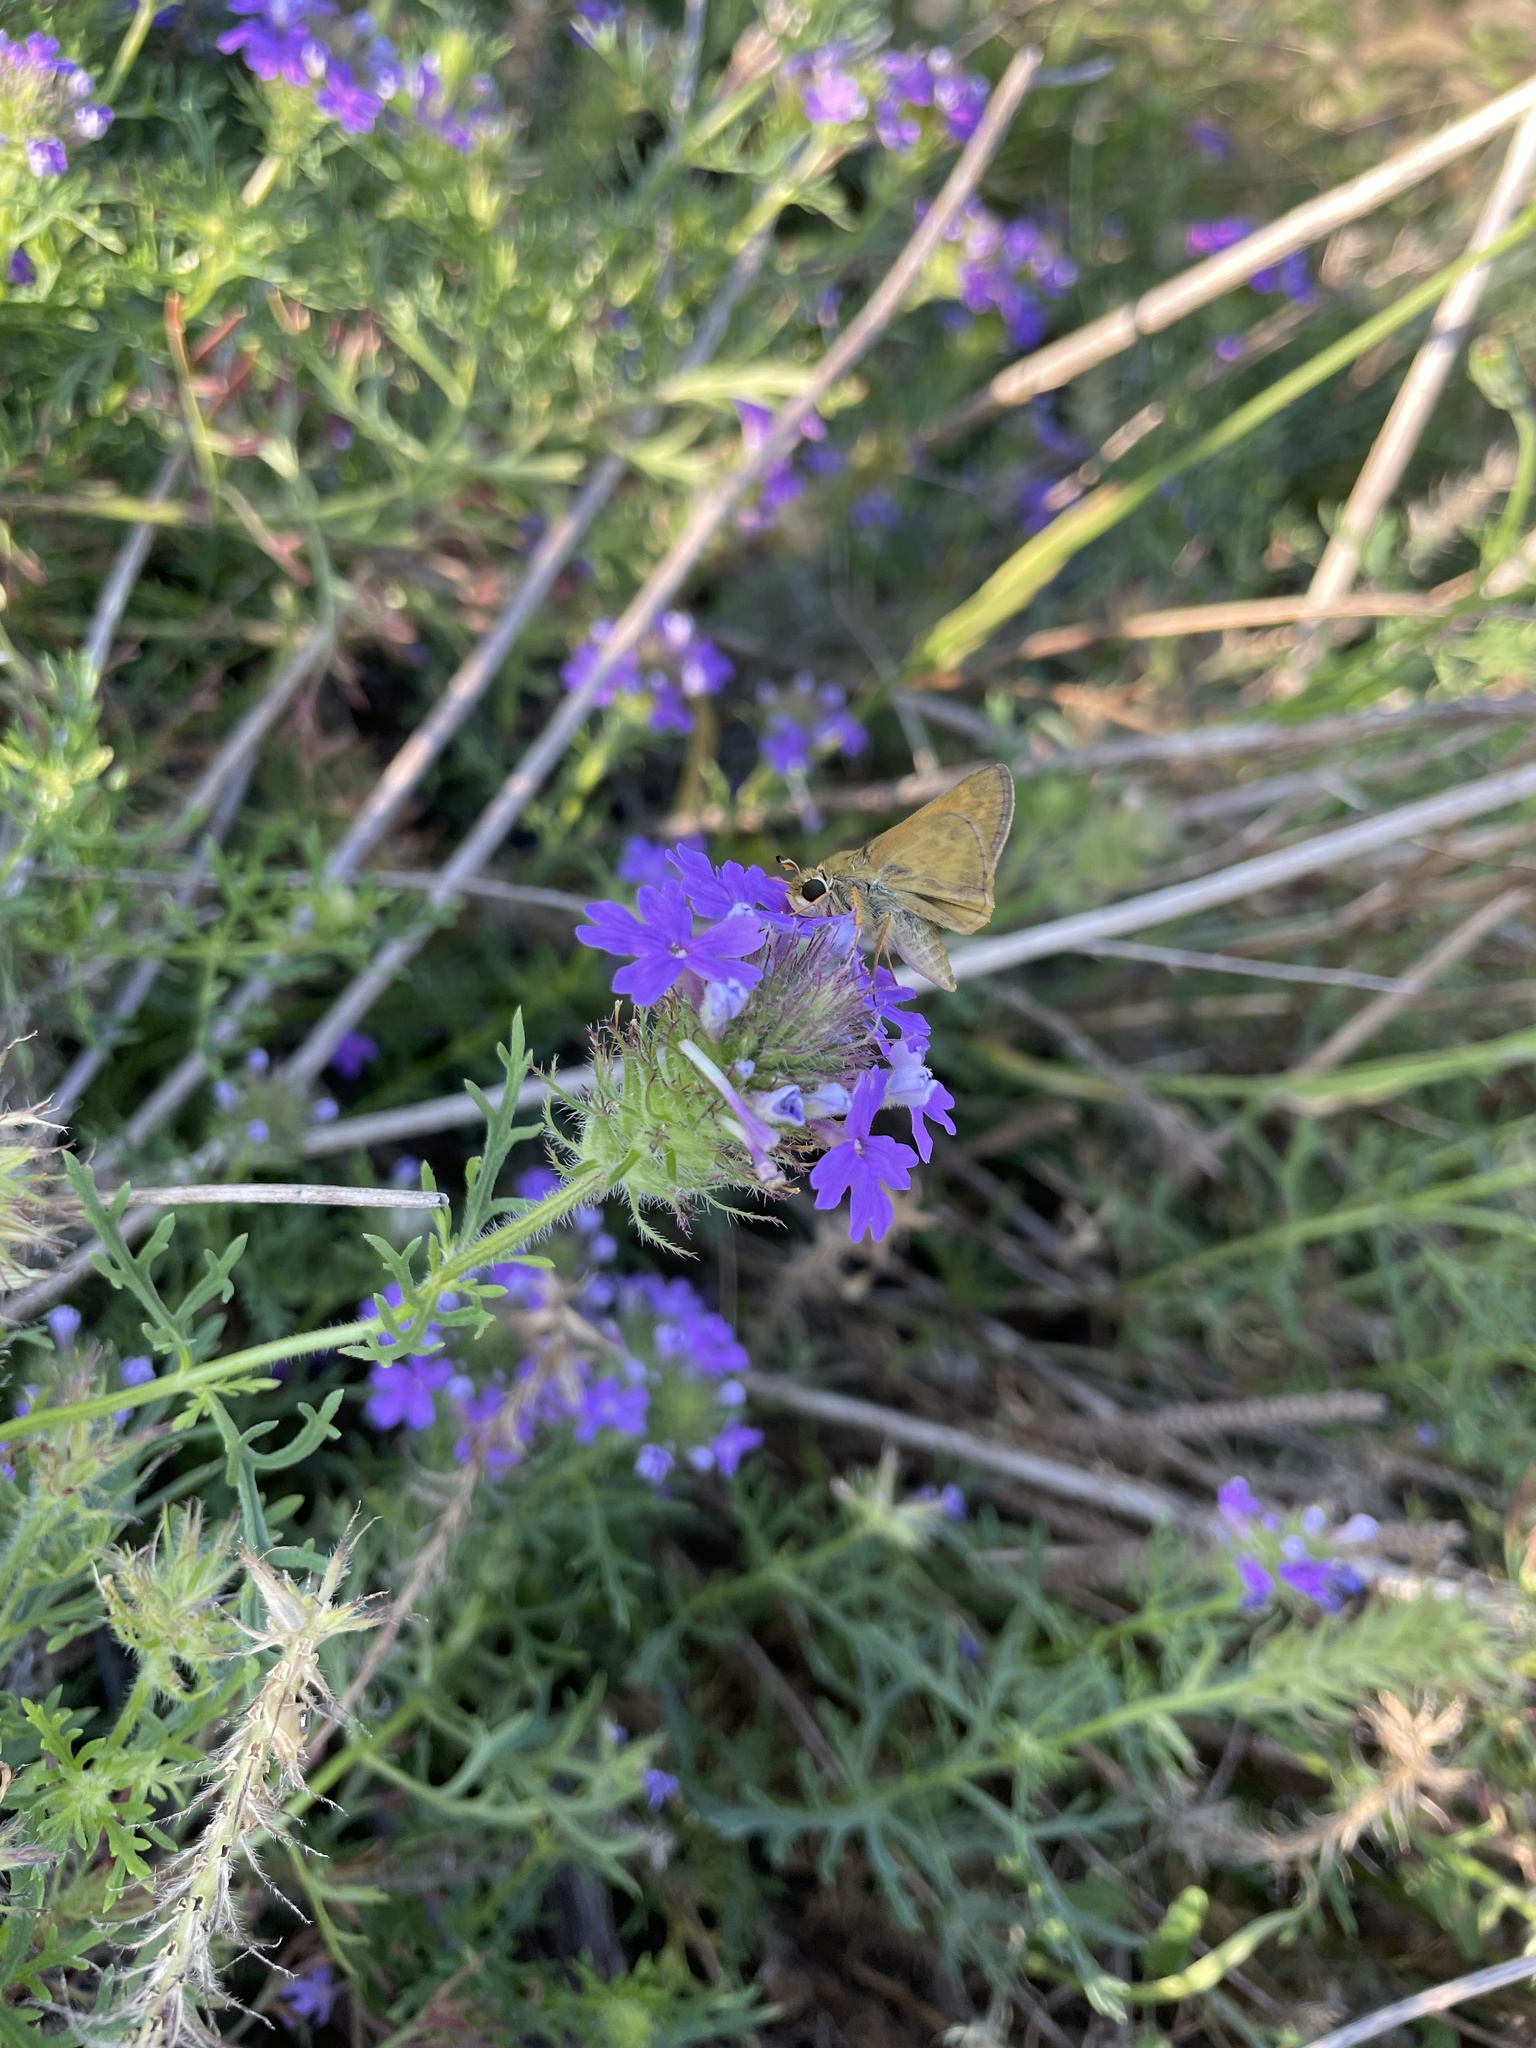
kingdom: Animalia
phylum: Arthropoda
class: Insecta
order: Lepidoptera
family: Hesperiidae
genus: Atalopedes
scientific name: Atalopedes
